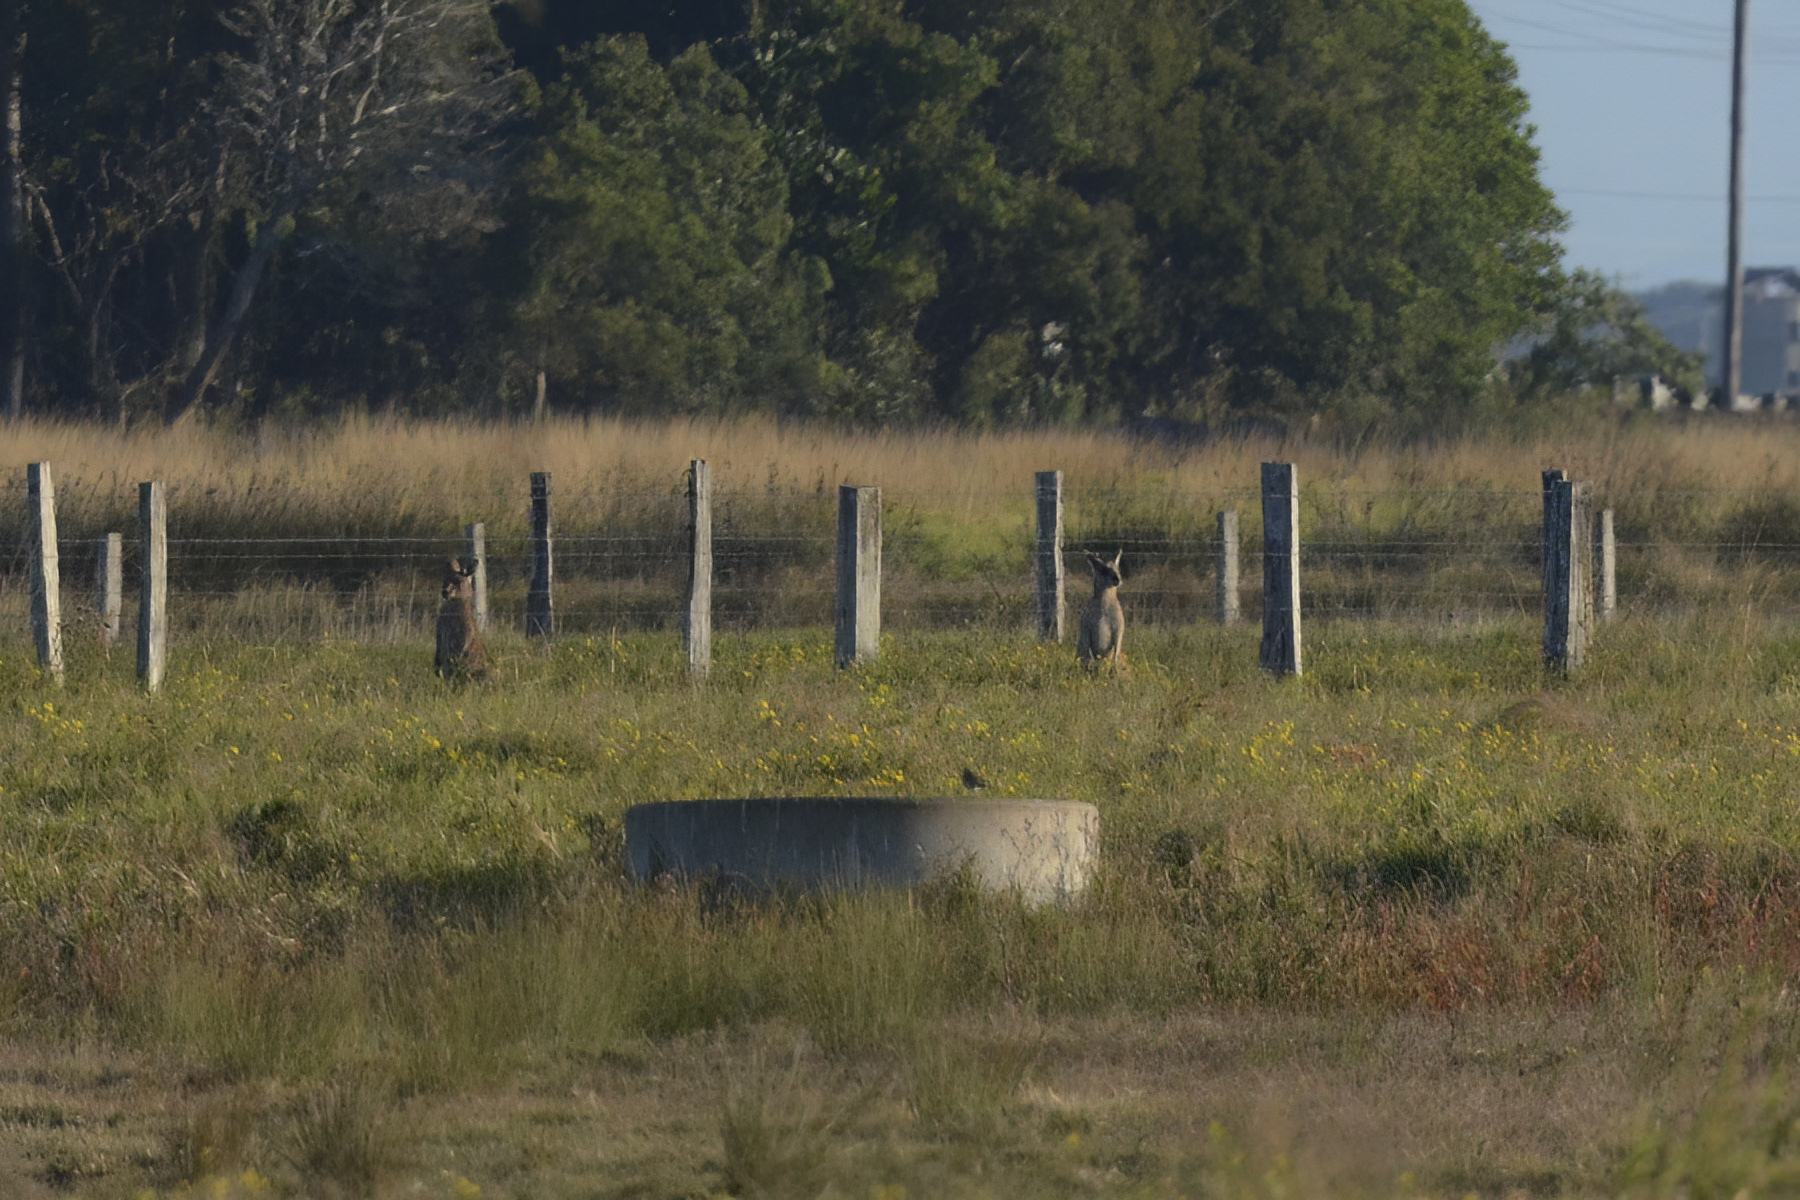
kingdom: Animalia
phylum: Chordata
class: Mammalia
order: Diprotodontia
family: Macropodidae
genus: Macropus
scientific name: Macropus giganteus
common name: Eastern grey kangaroo
